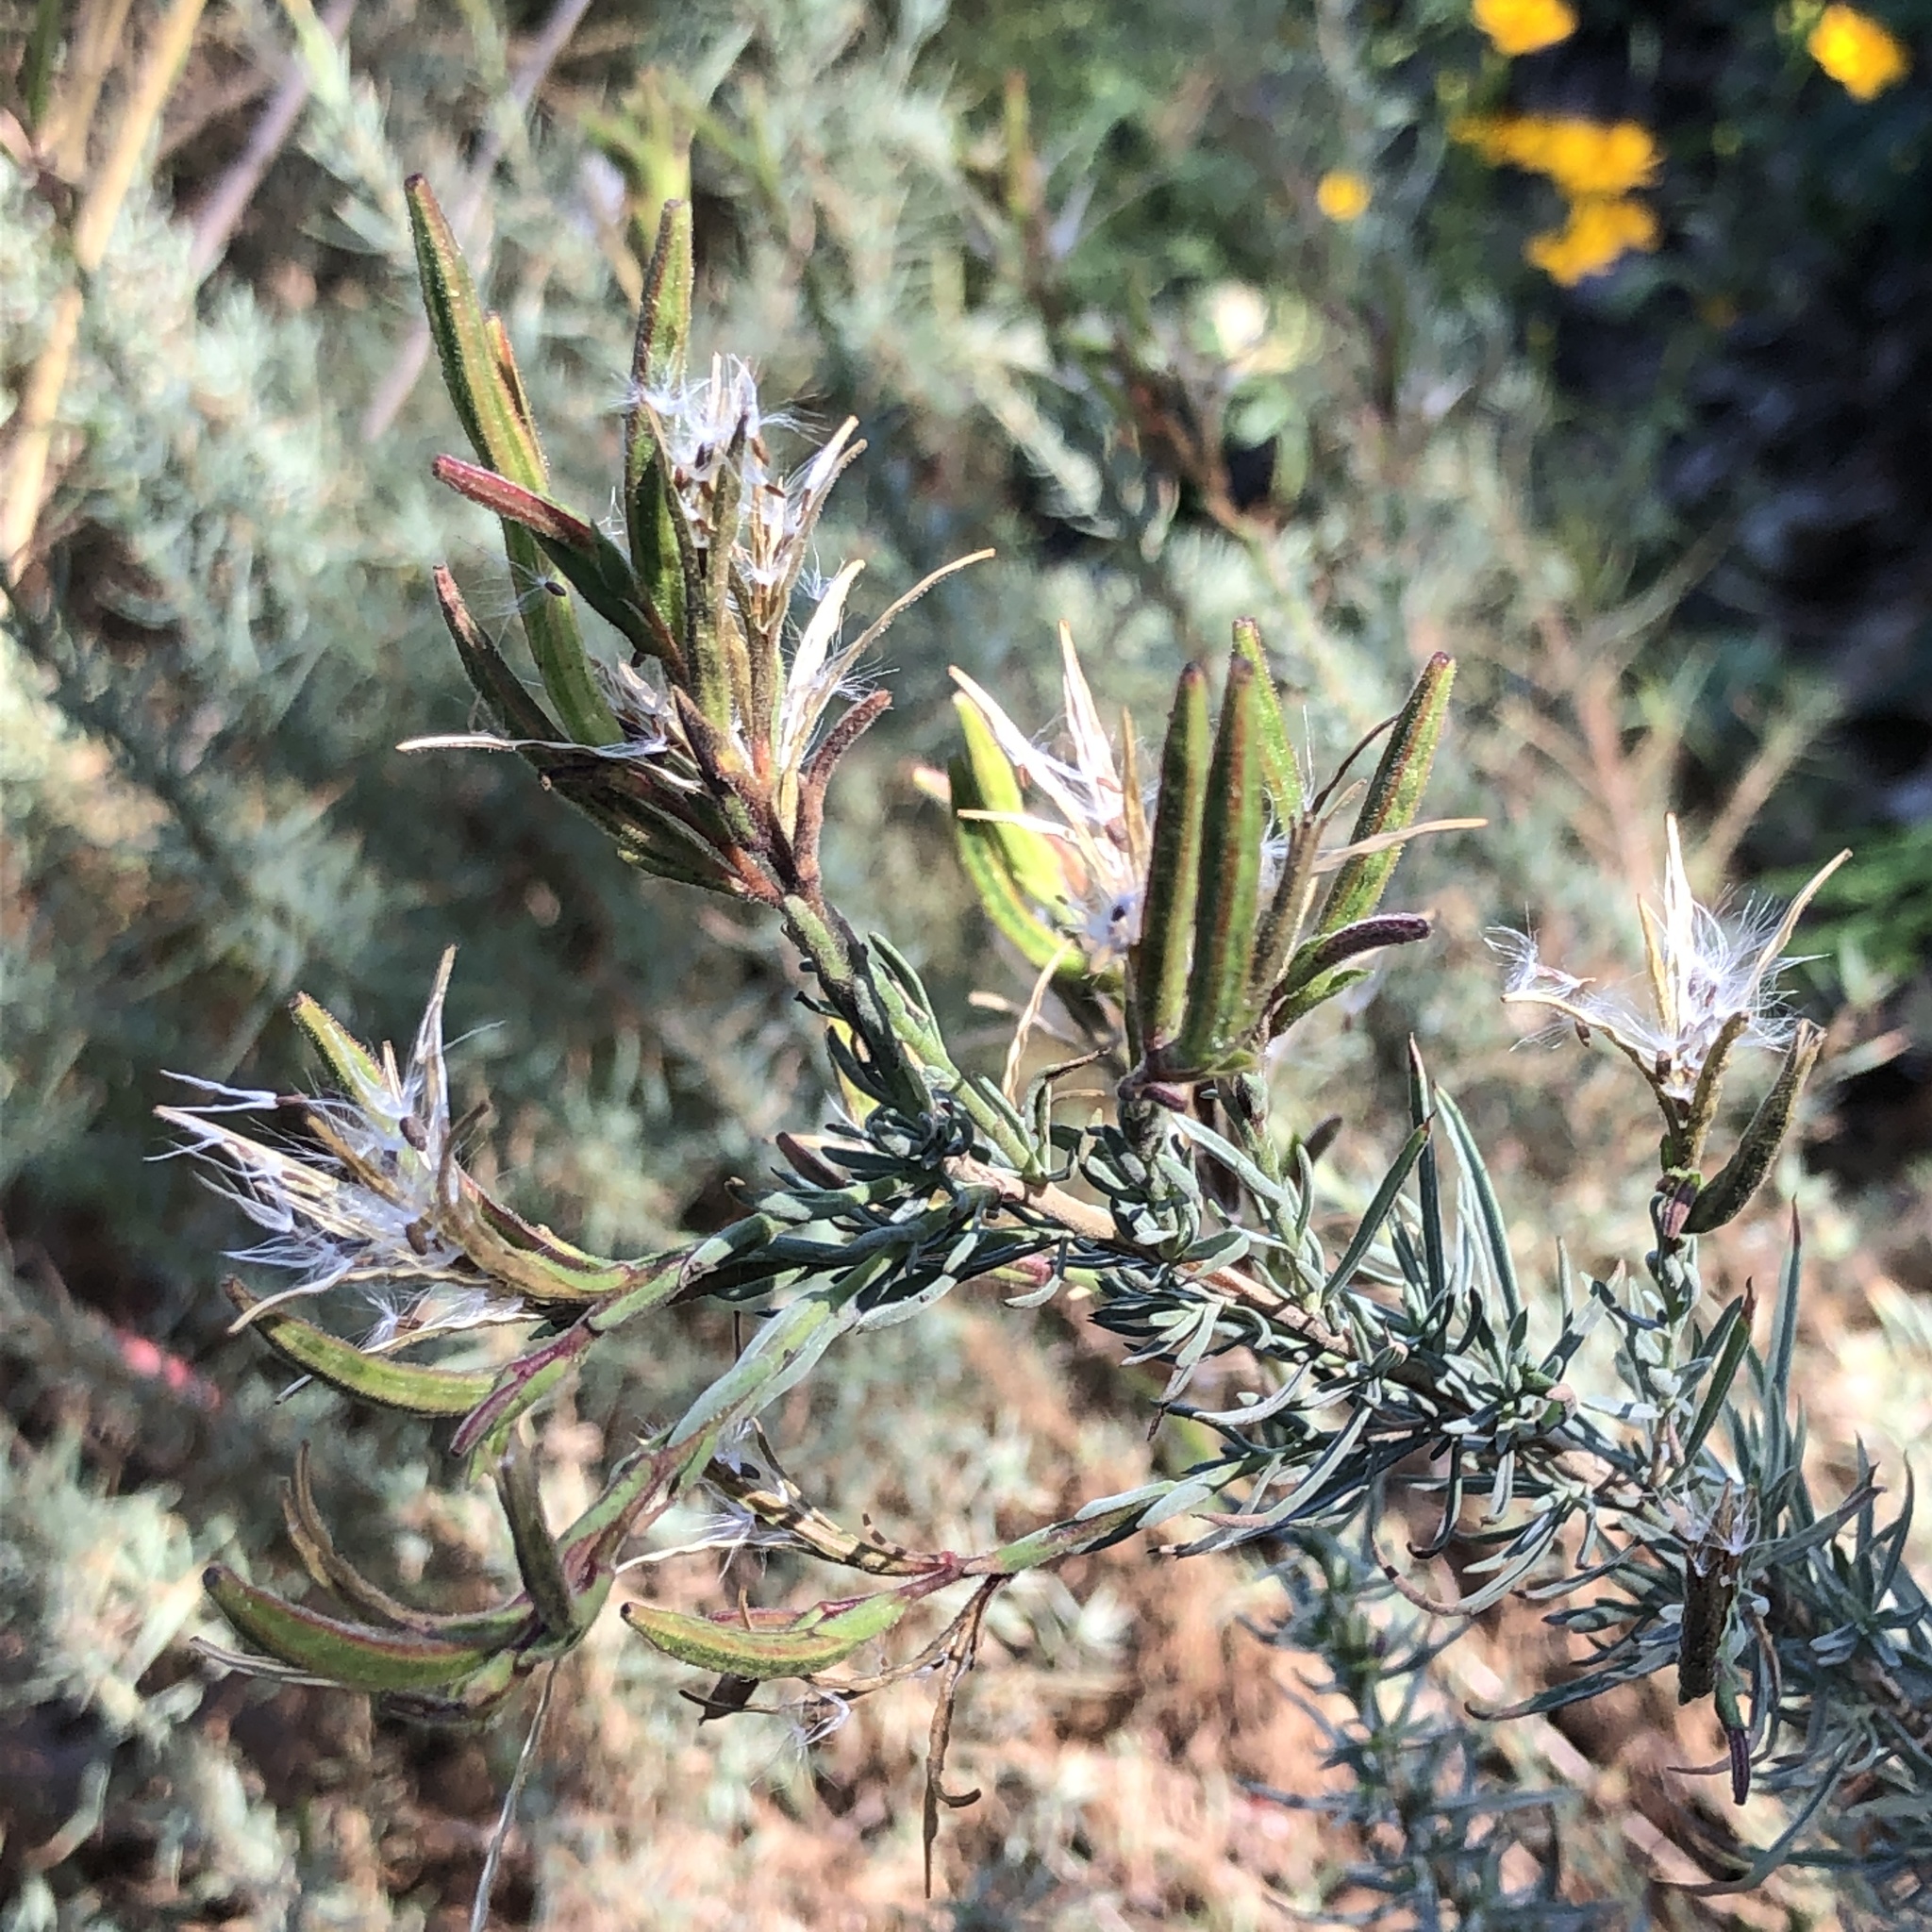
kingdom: Plantae
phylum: Tracheophyta
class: Magnoliopsida
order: Myrtales
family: Onagraceae
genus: Epilobium
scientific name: Epilobium canum
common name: California-fuchsia
